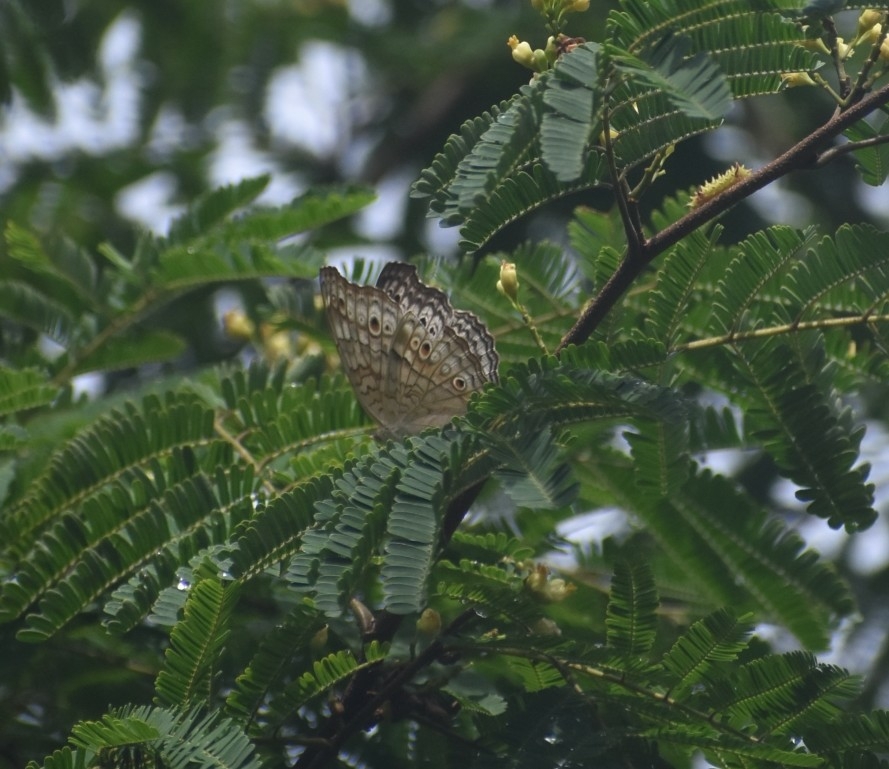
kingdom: Animalia
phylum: Arthropoda
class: Insecta
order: Lepidoptera
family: Nymphalidae
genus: Junonia
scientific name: Junonia atlites
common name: Grey pansy
